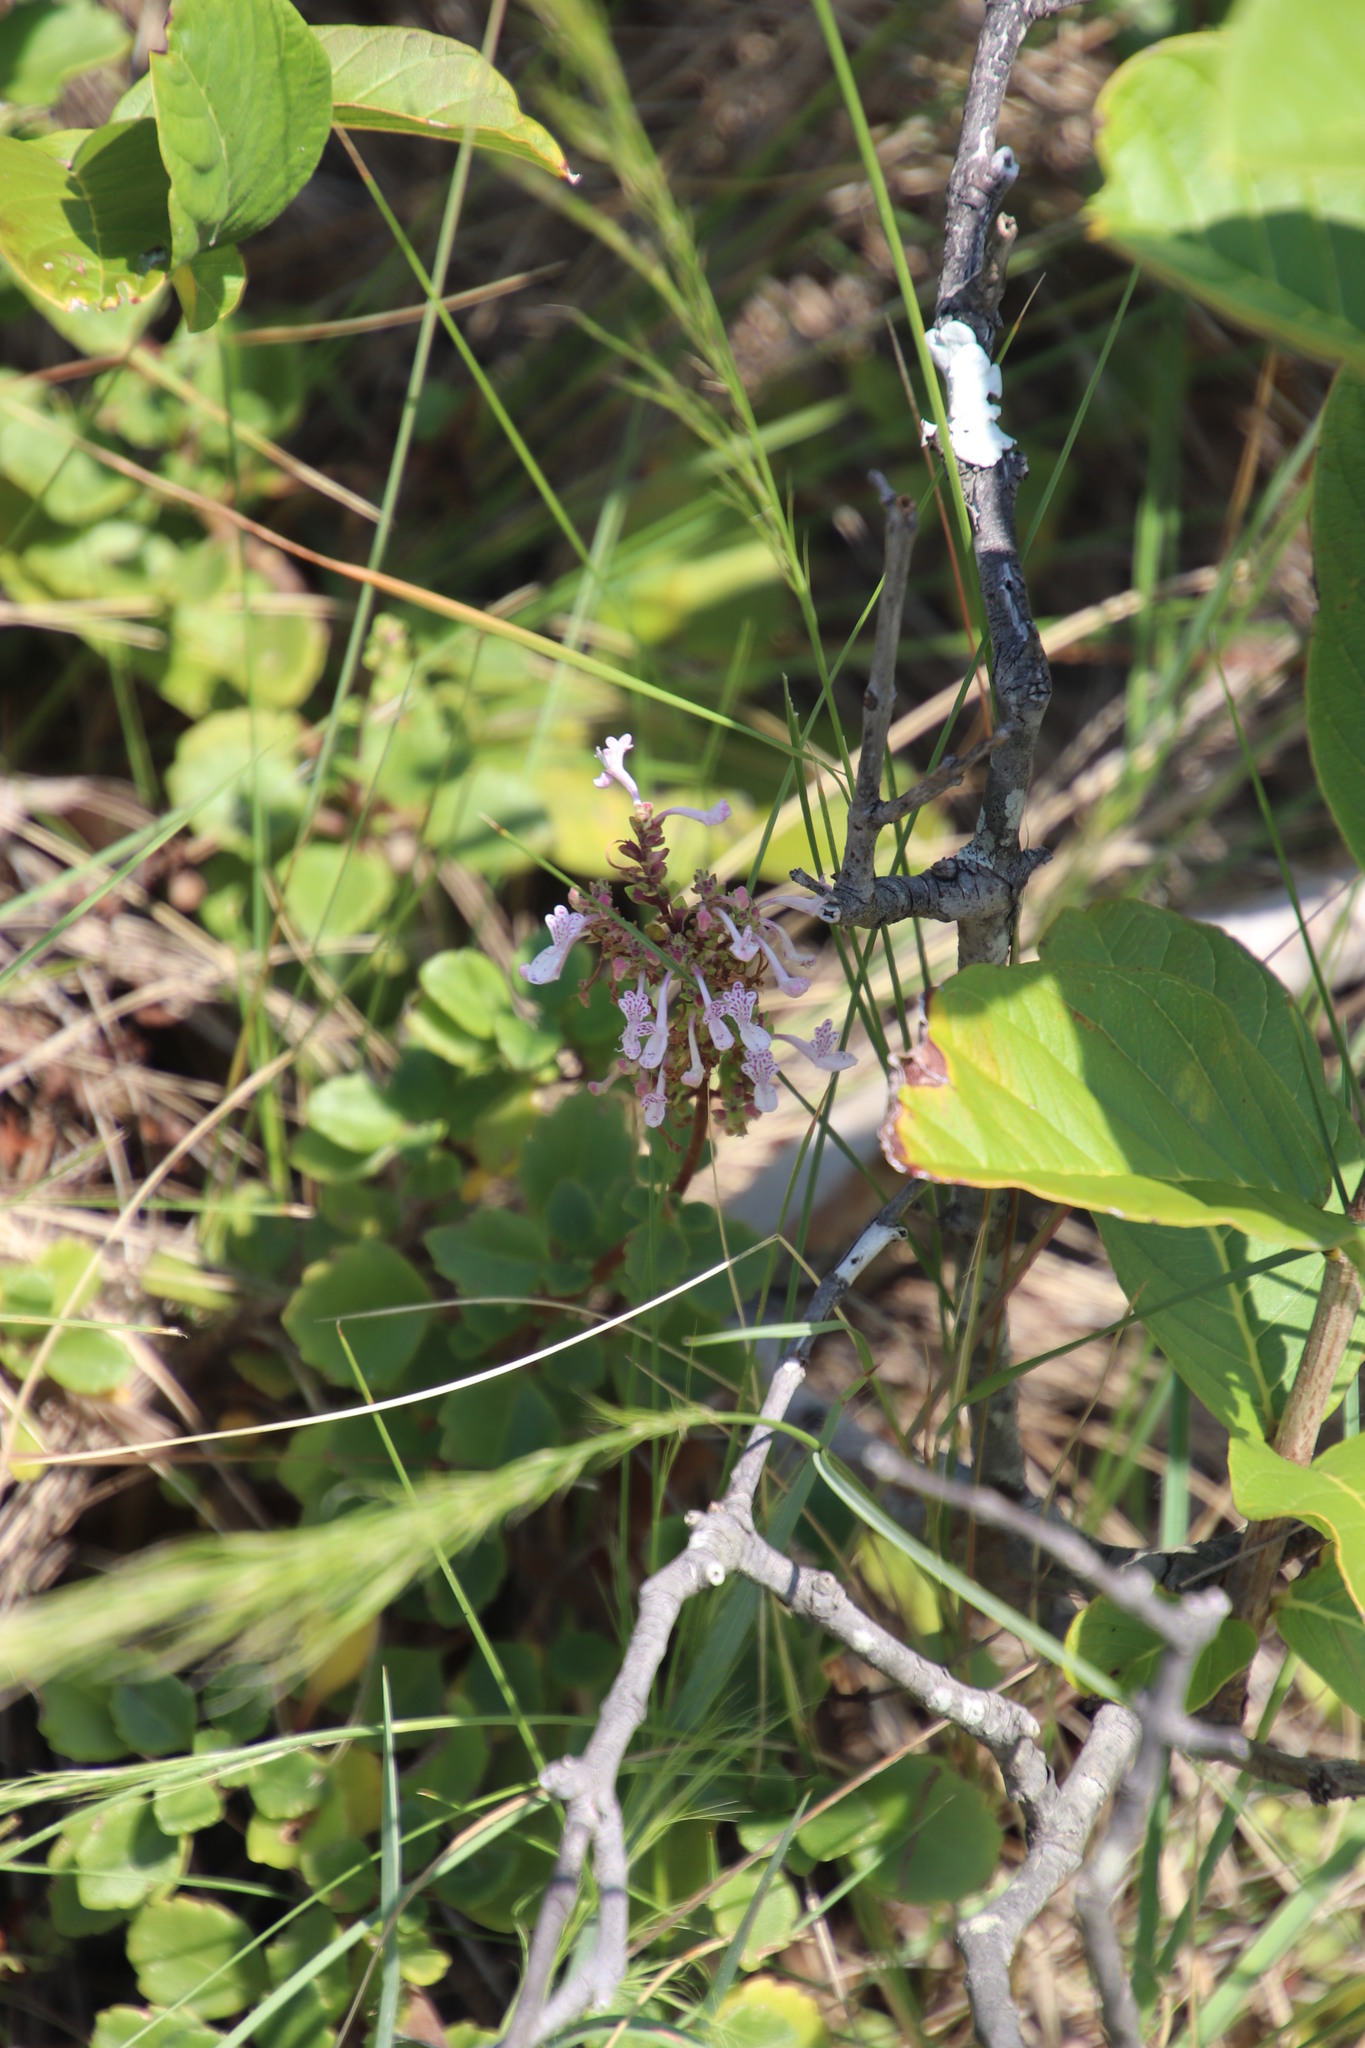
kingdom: Plantae
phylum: Tracheophyta
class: Magnoliopsida
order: Lamiales
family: Lamiaceae
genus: Aeollanthus
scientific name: Aeollanthus parvifolius
